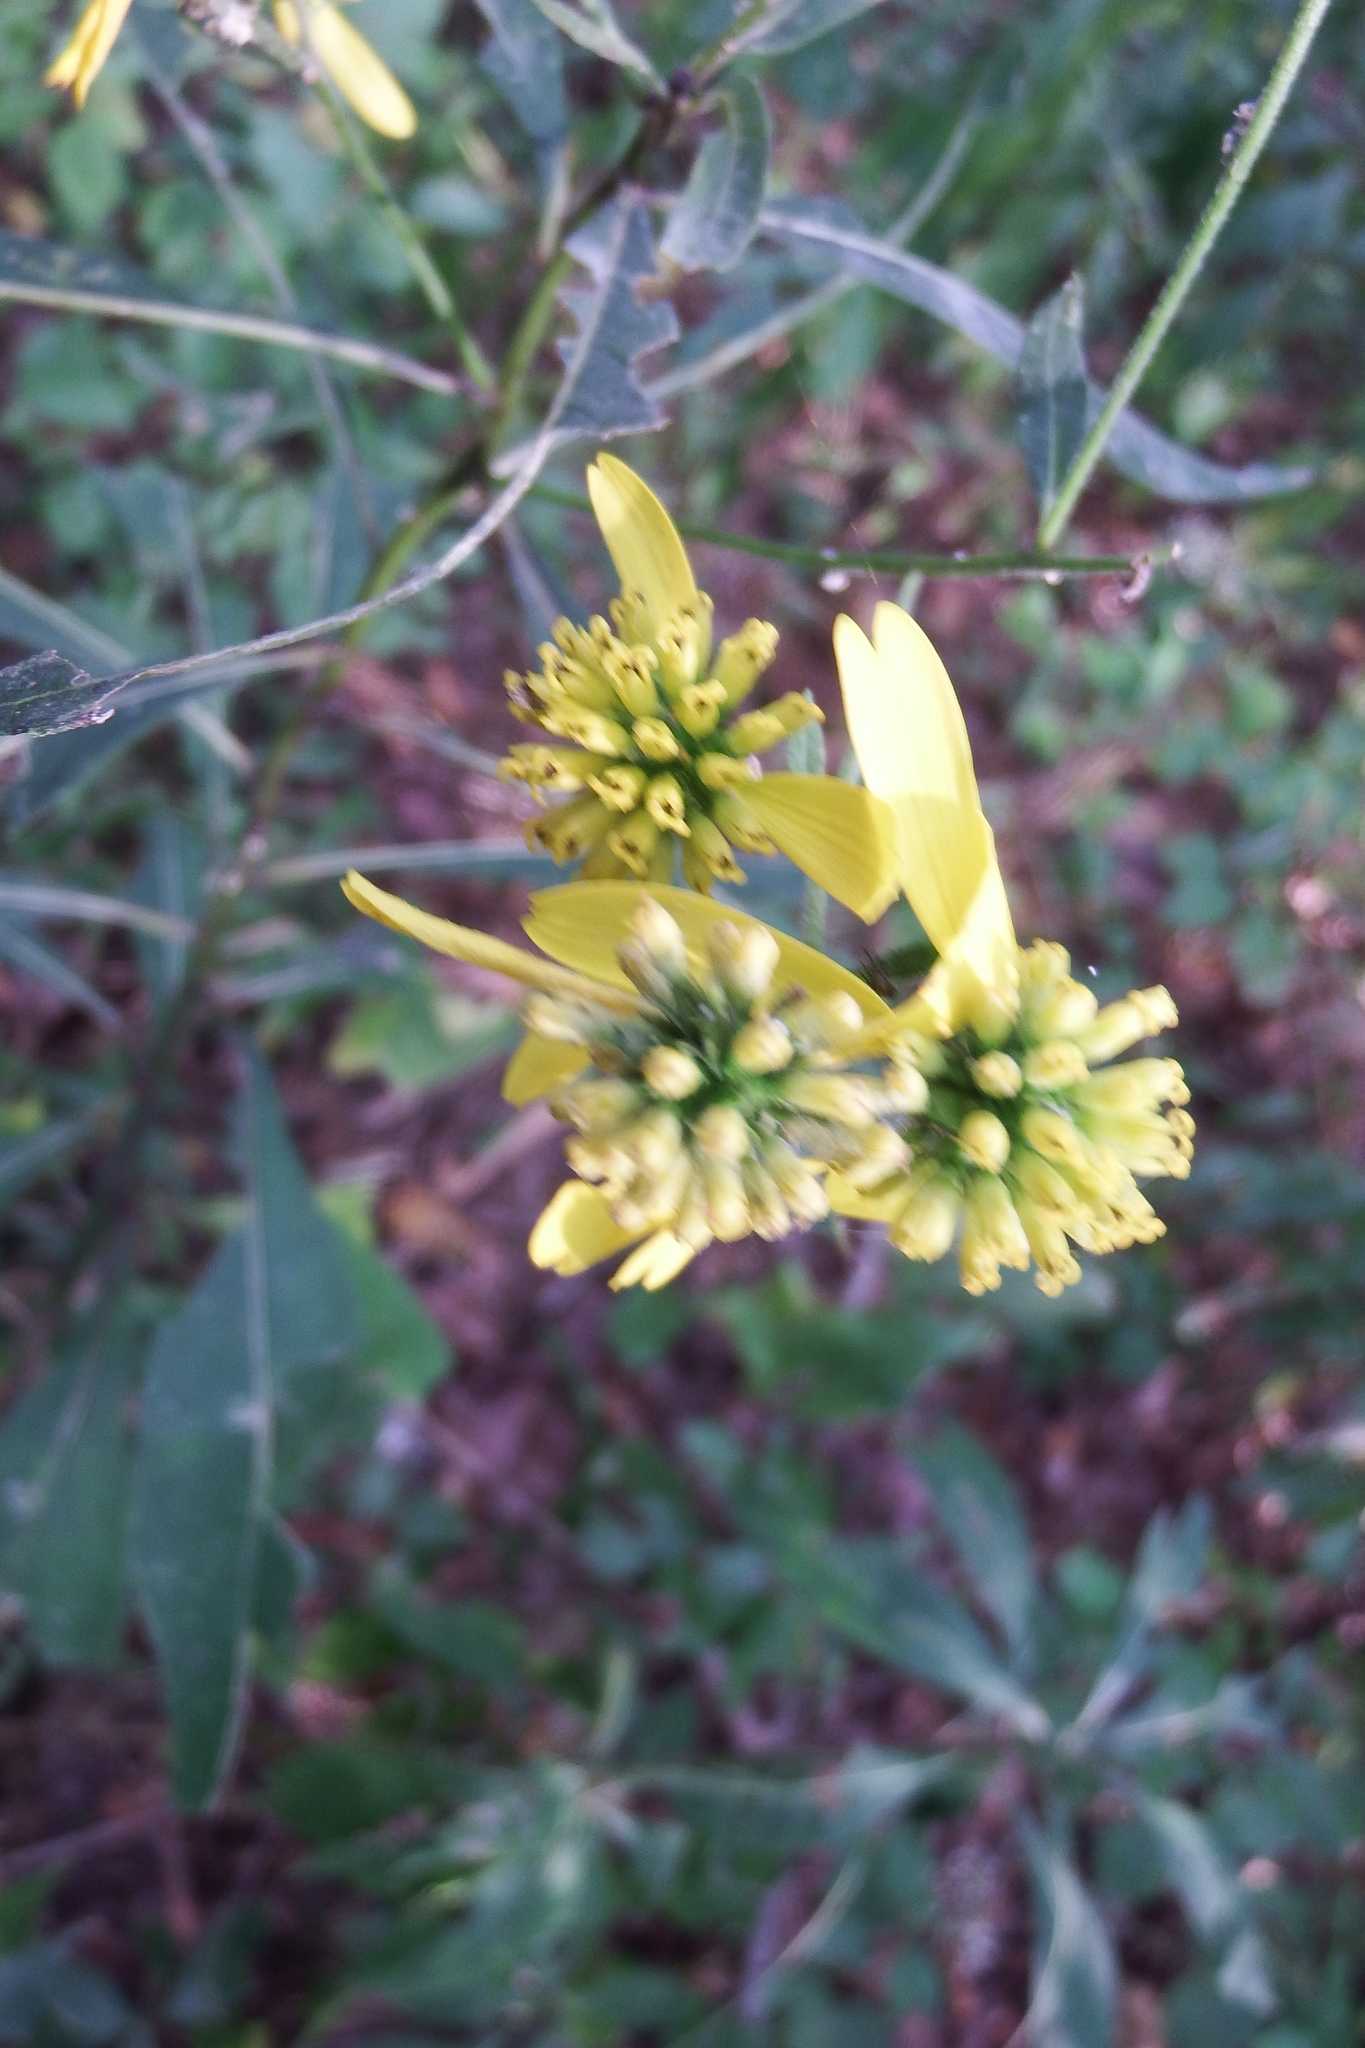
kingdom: Plantae
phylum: Tracheophyta
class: Magnoliopsida
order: Asterales
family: Asteraceae
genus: Verbesina
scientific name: Verbesina alternifolia
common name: Wingstem
